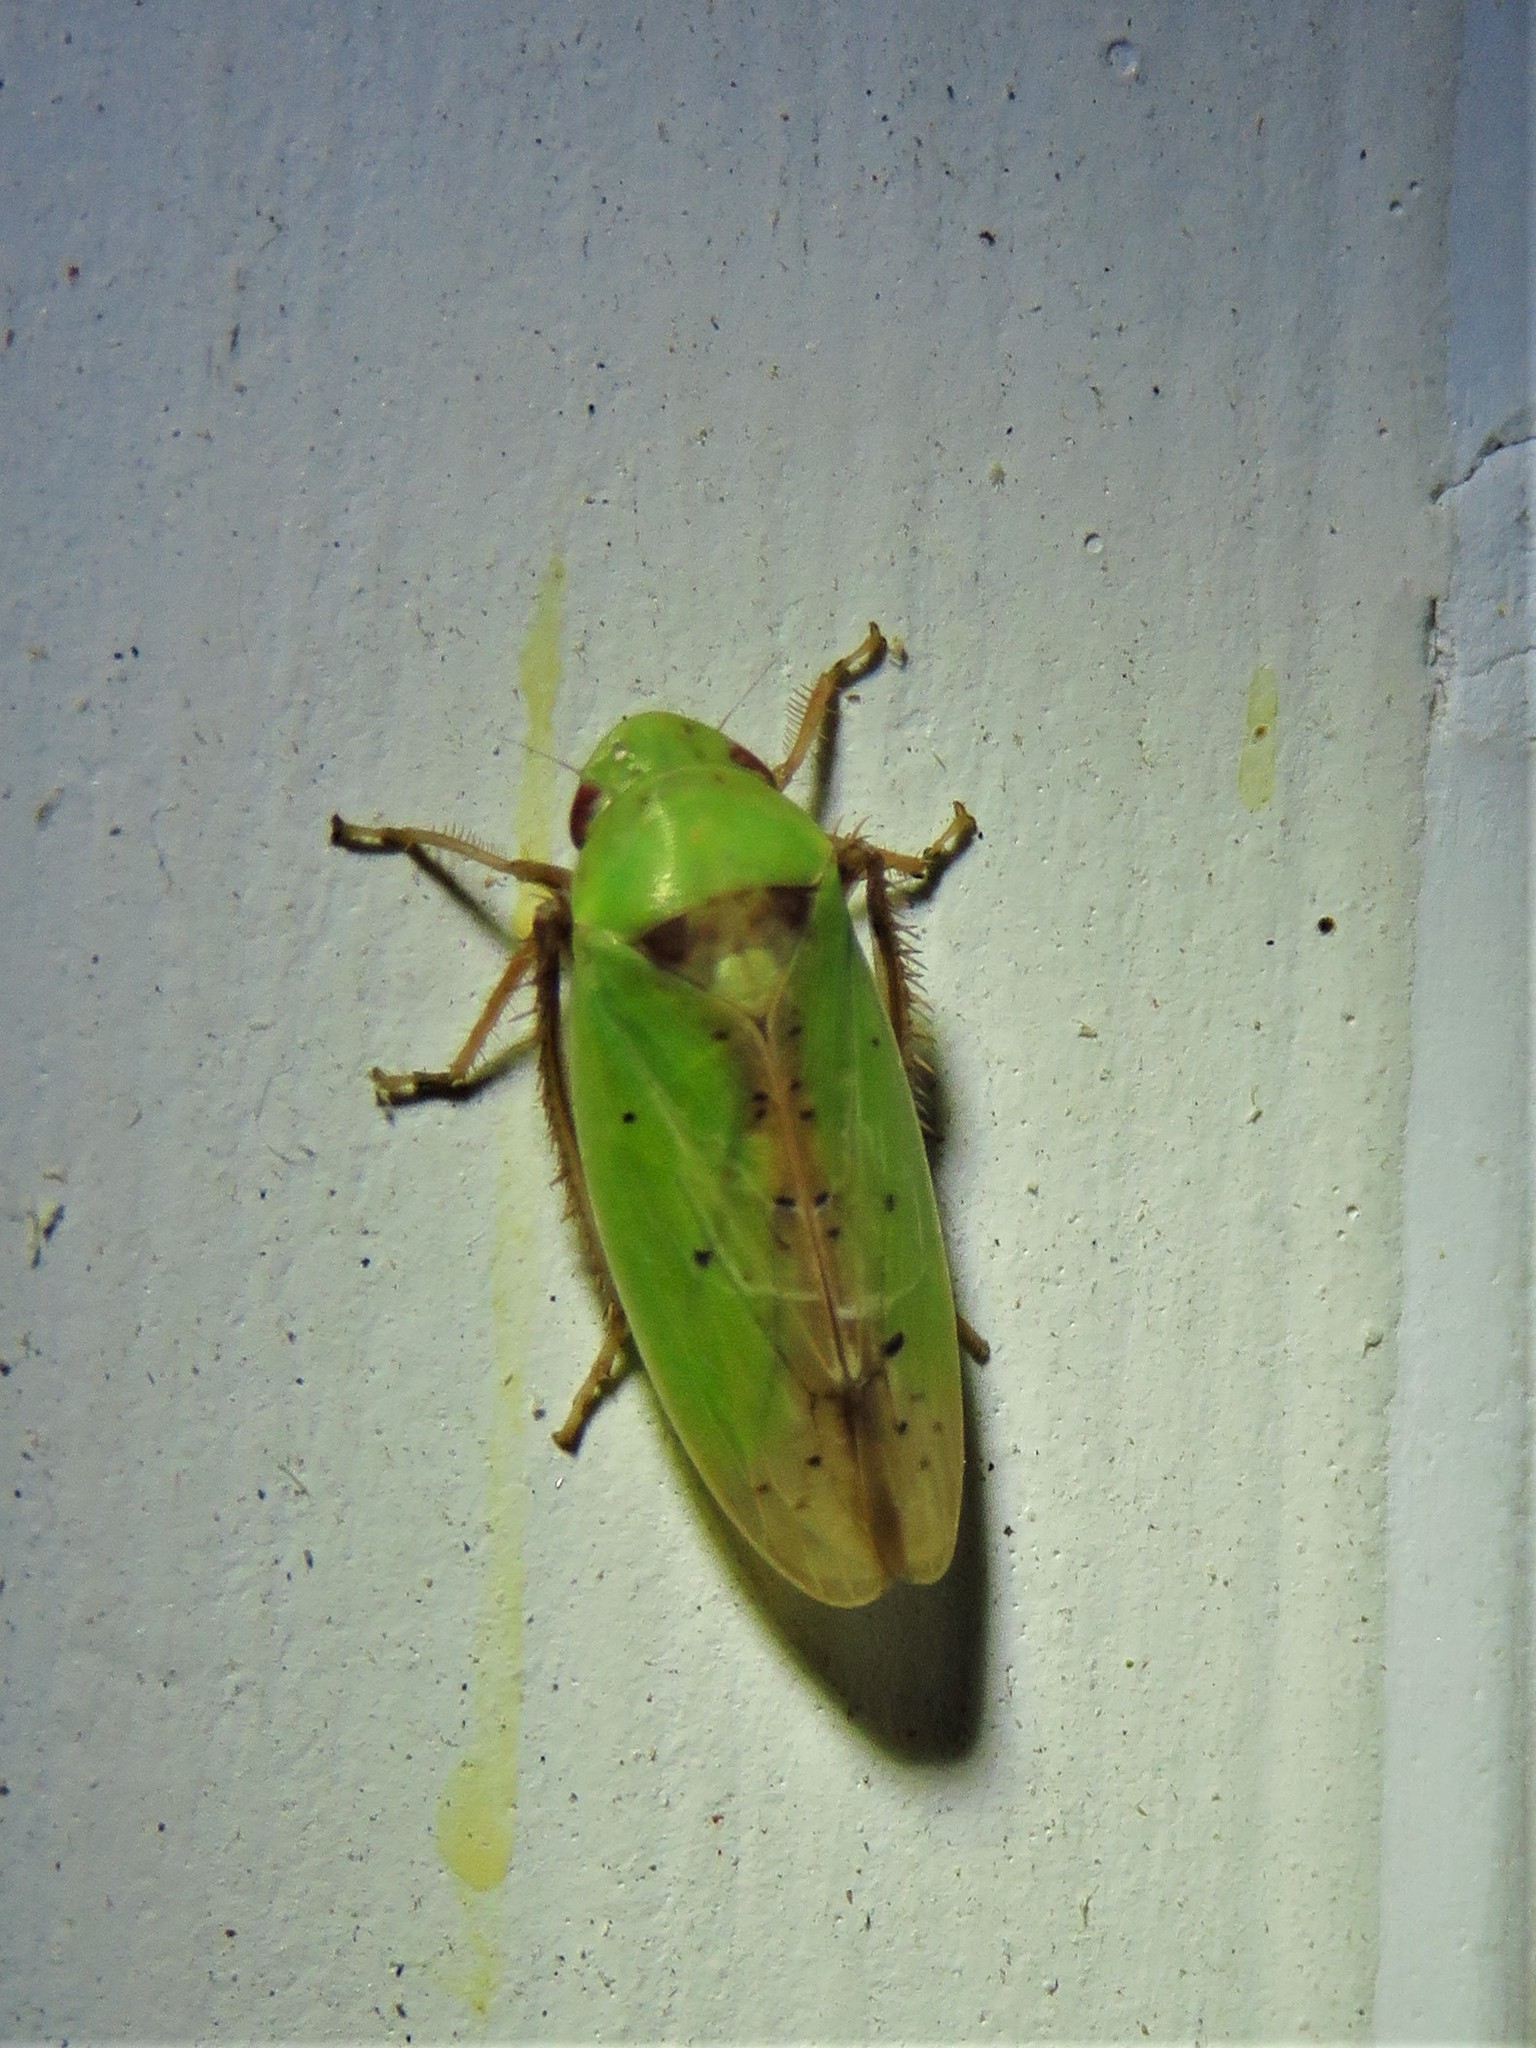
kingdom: Animalia
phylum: Arthropoda
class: Insecta
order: Hemiptera
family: Cicadellidae
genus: Ponana
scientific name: Ponana
